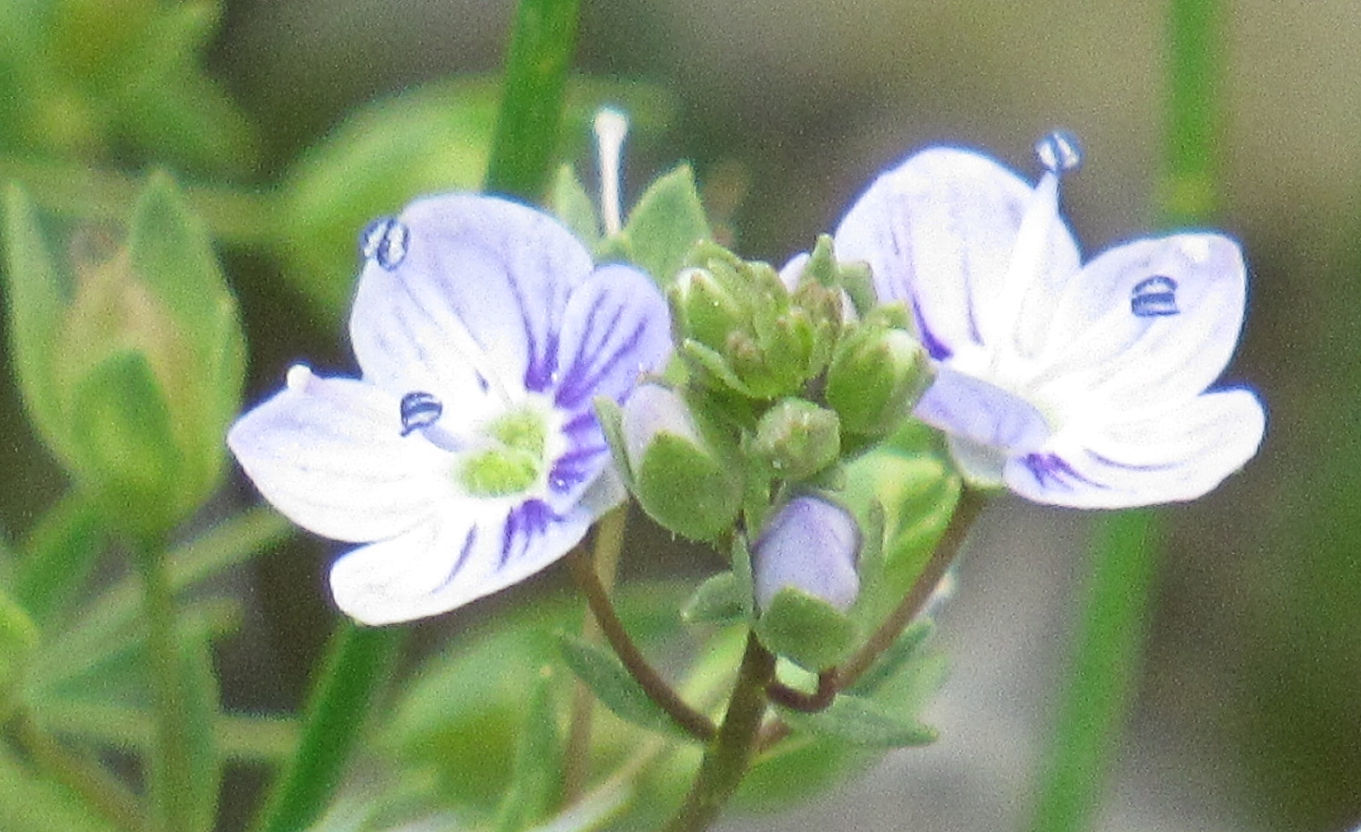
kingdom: Plantae
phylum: Tracheophyta
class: Magnoliopsida
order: Lamiales
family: Plantaginaceae
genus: Veronica
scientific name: Veronica anagallis-aquatica
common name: Water speedwell
